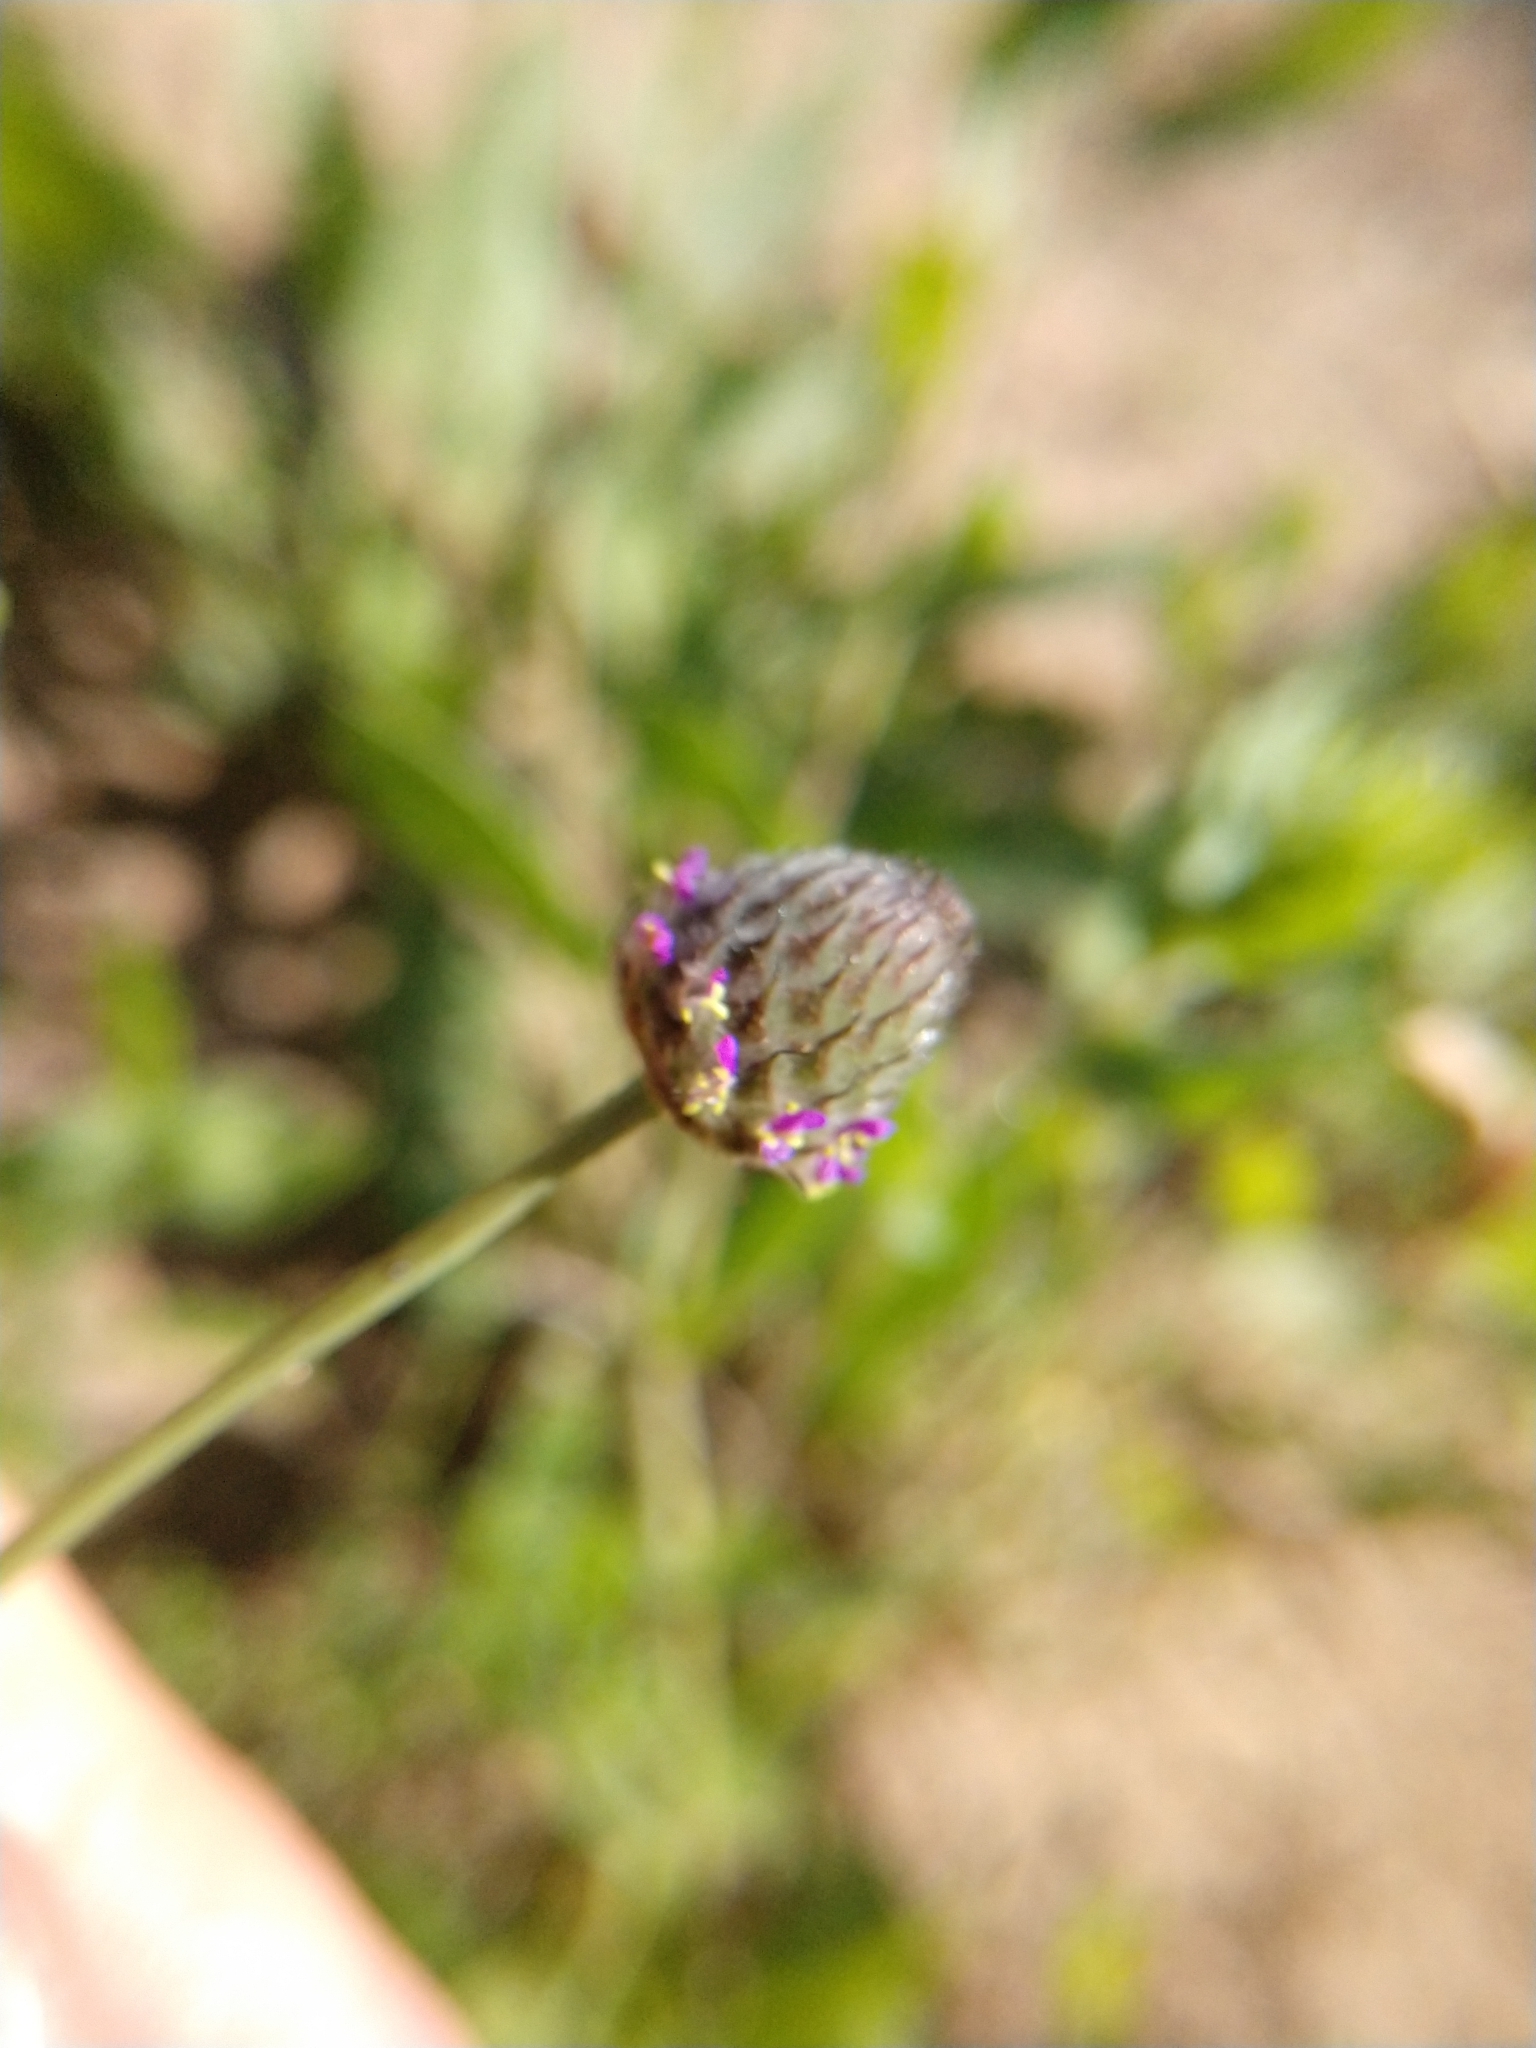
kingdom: Plantae
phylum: Tracheophyta
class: Magnoliopsida
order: Fabales
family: Fabaceae
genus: Dalea
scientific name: Dalea emarginata
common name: Wedgeleaf prairie clover
